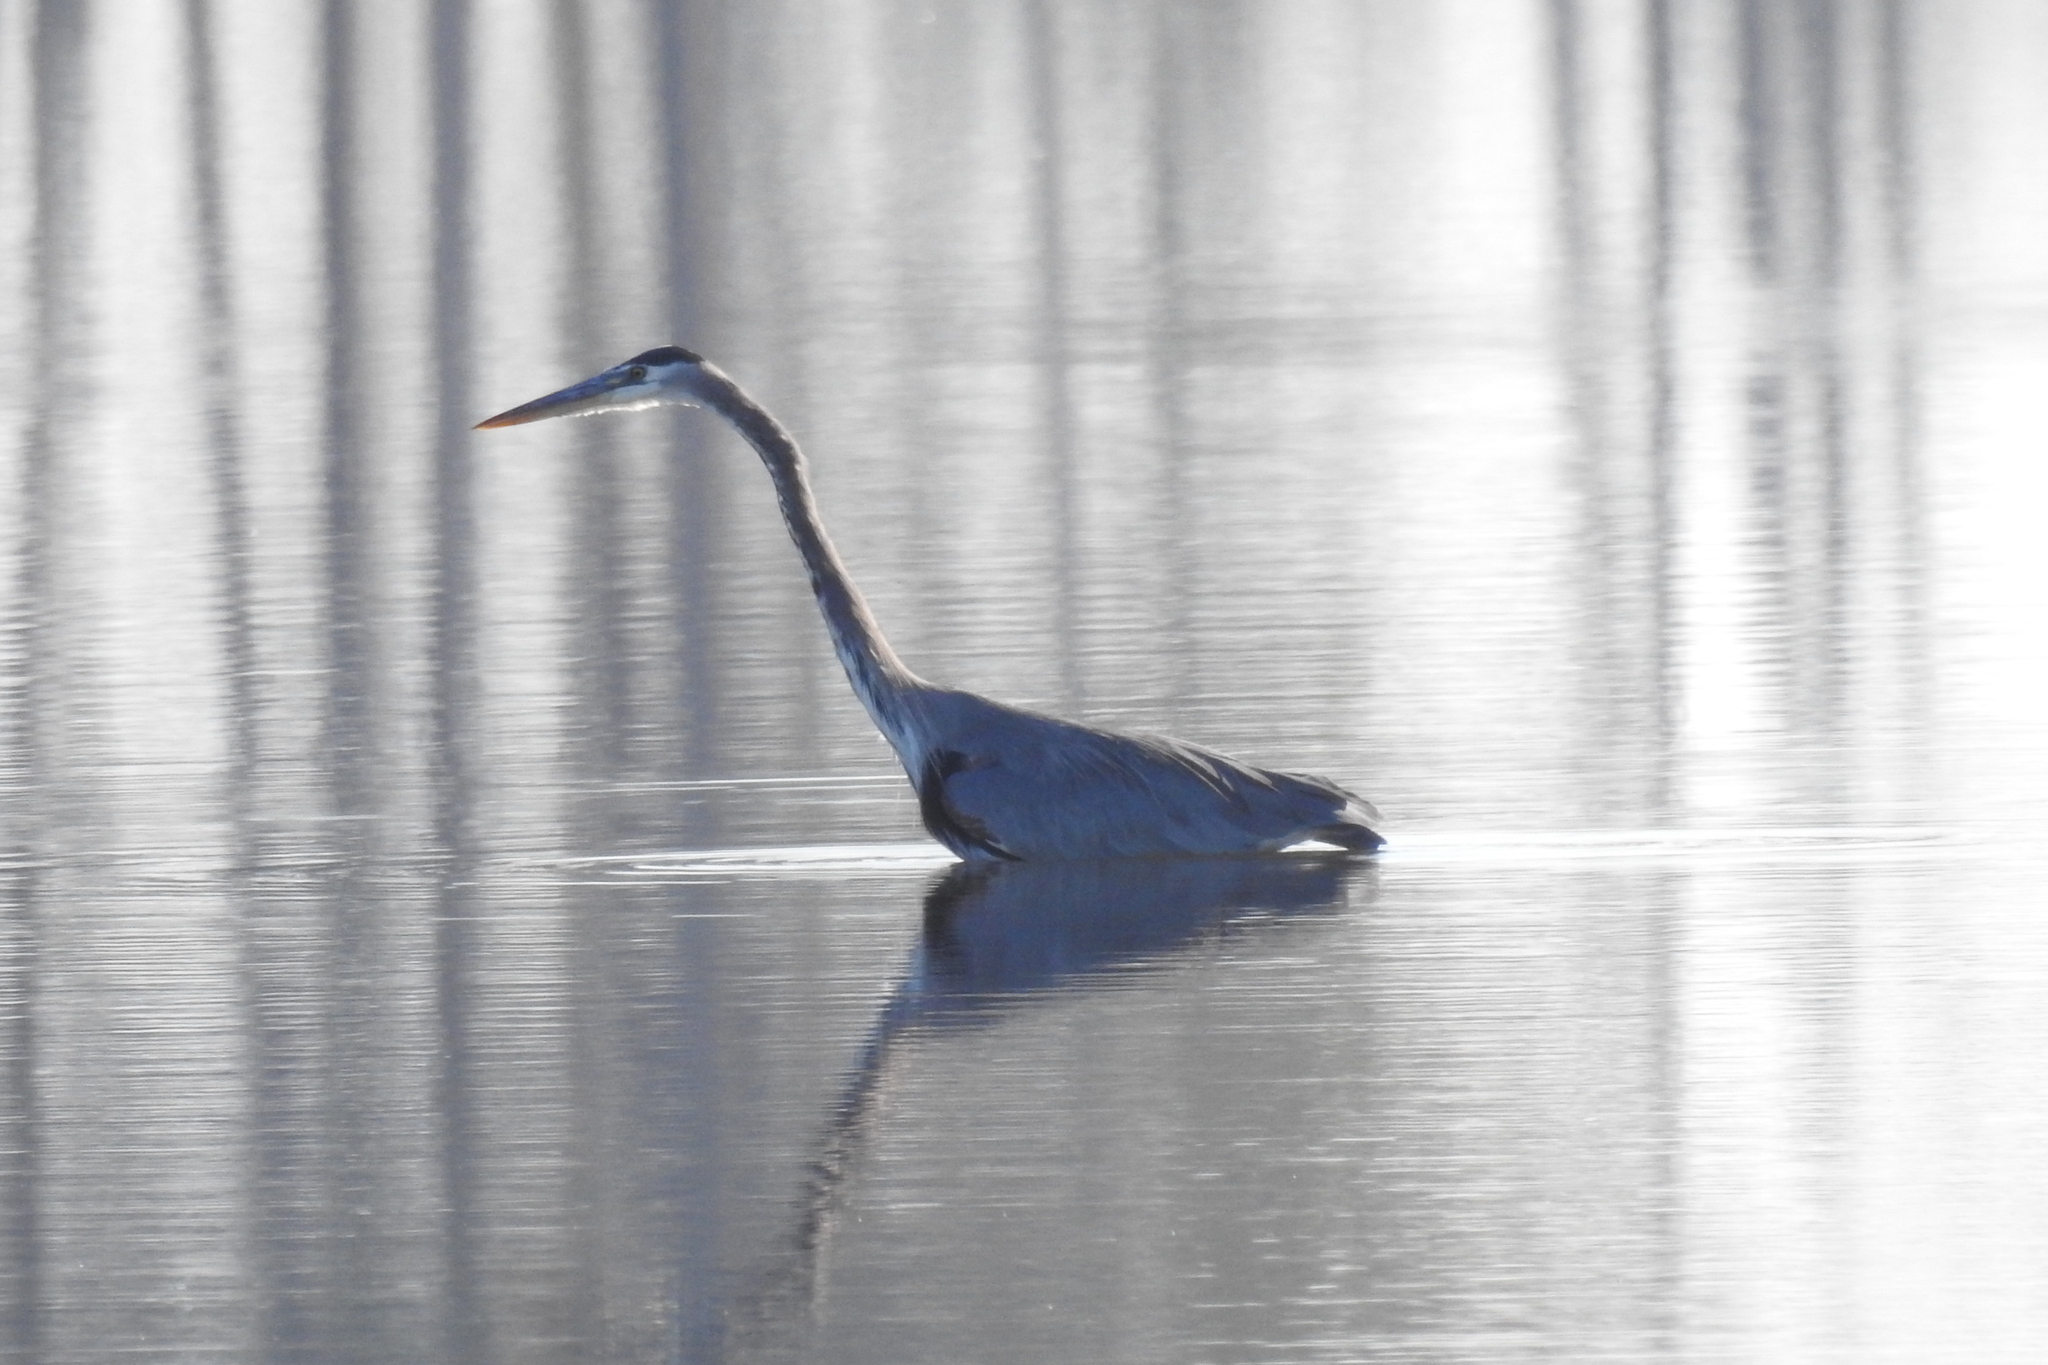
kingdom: Animalia
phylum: Chordata
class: Aves
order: Pelecaniformes
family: Ardeidae
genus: Ardea
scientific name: Ardea herodias
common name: Great blue heron
